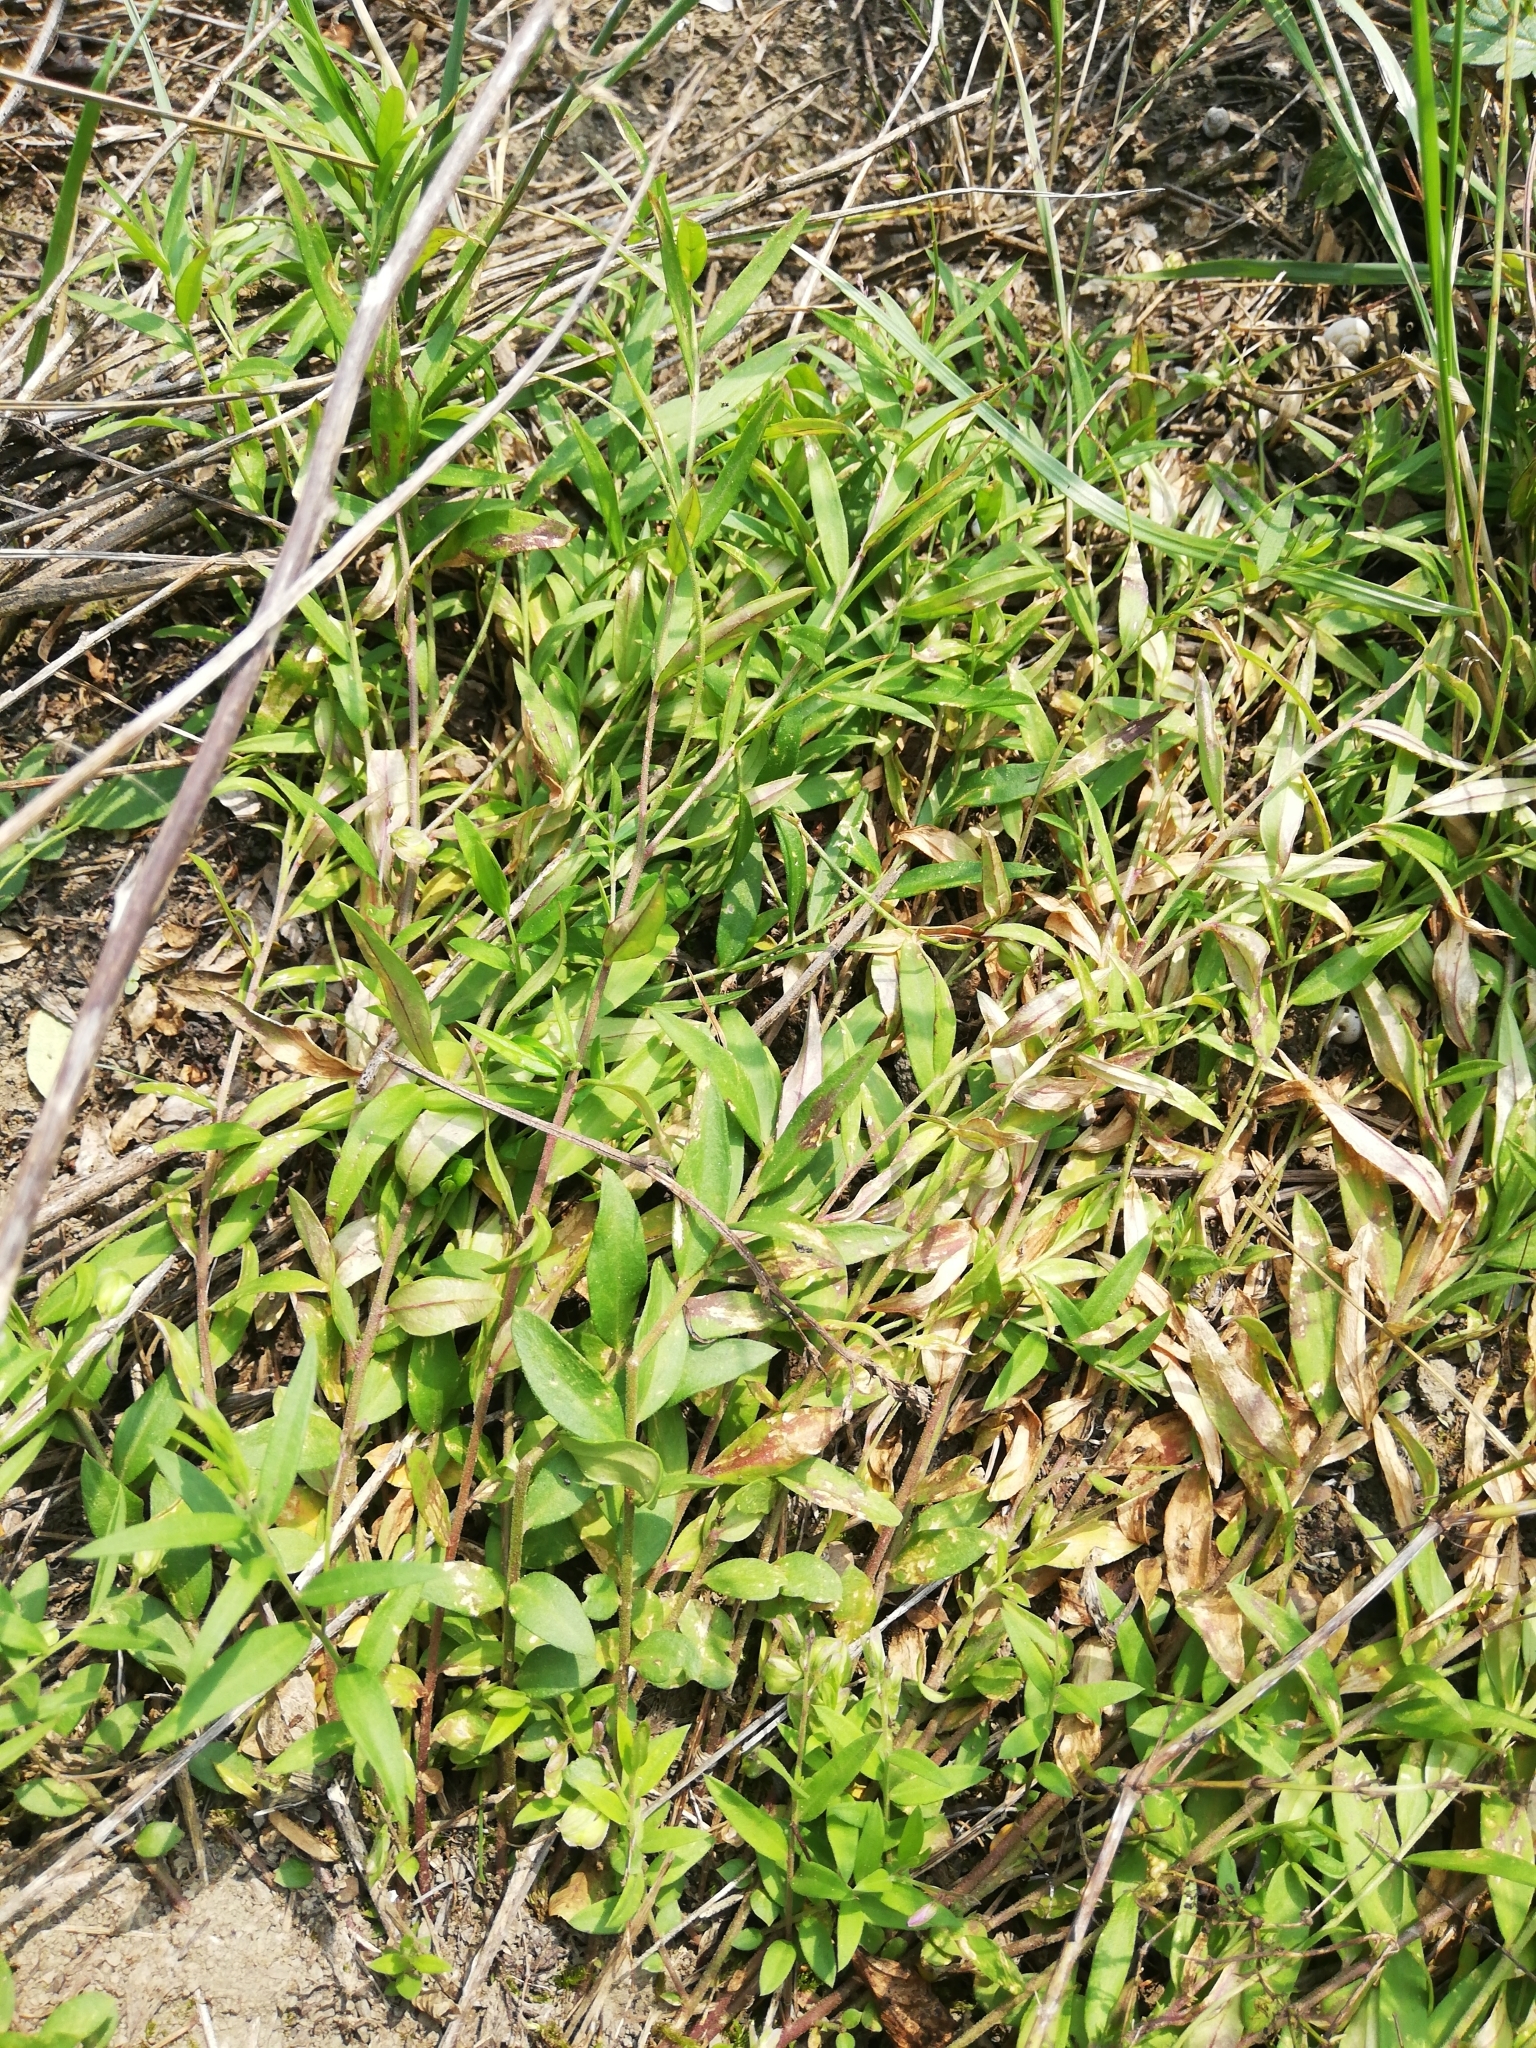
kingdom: Plantae
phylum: Tracheophyta
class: Magnoliopsida
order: Fabales
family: Polygalaceae
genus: Polygala
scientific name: Polygala sibirica
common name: Siberian polygala
